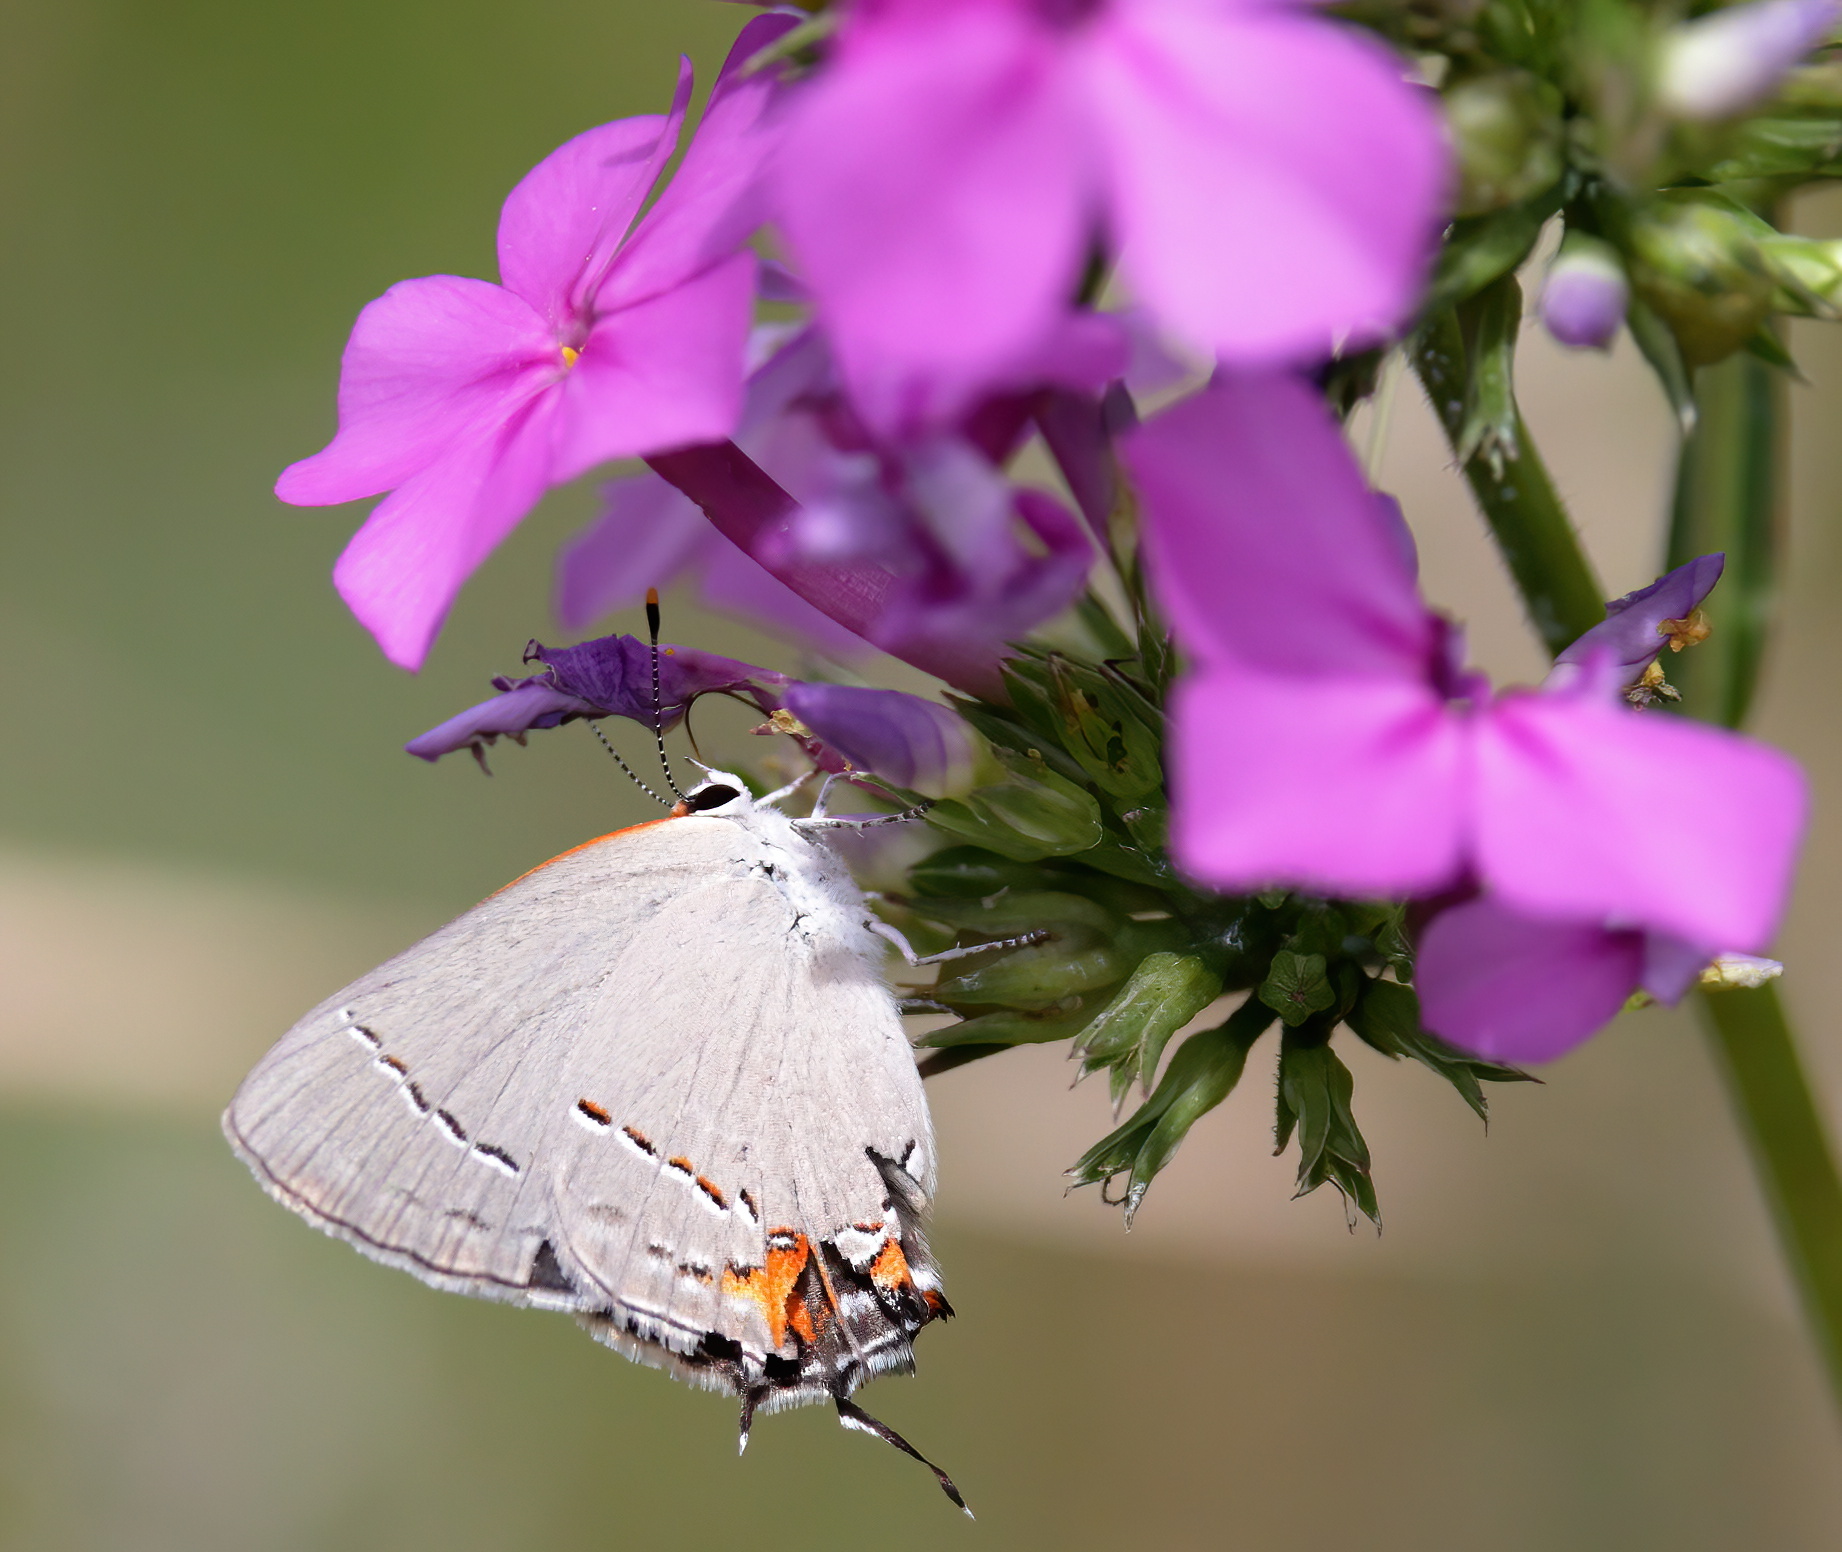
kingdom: Animalia
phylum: Arthropoda
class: Insecta
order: Lepidoptera
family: Lycaenidae
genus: Strymon
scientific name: Strymon melinus
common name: Gray hairstreak
